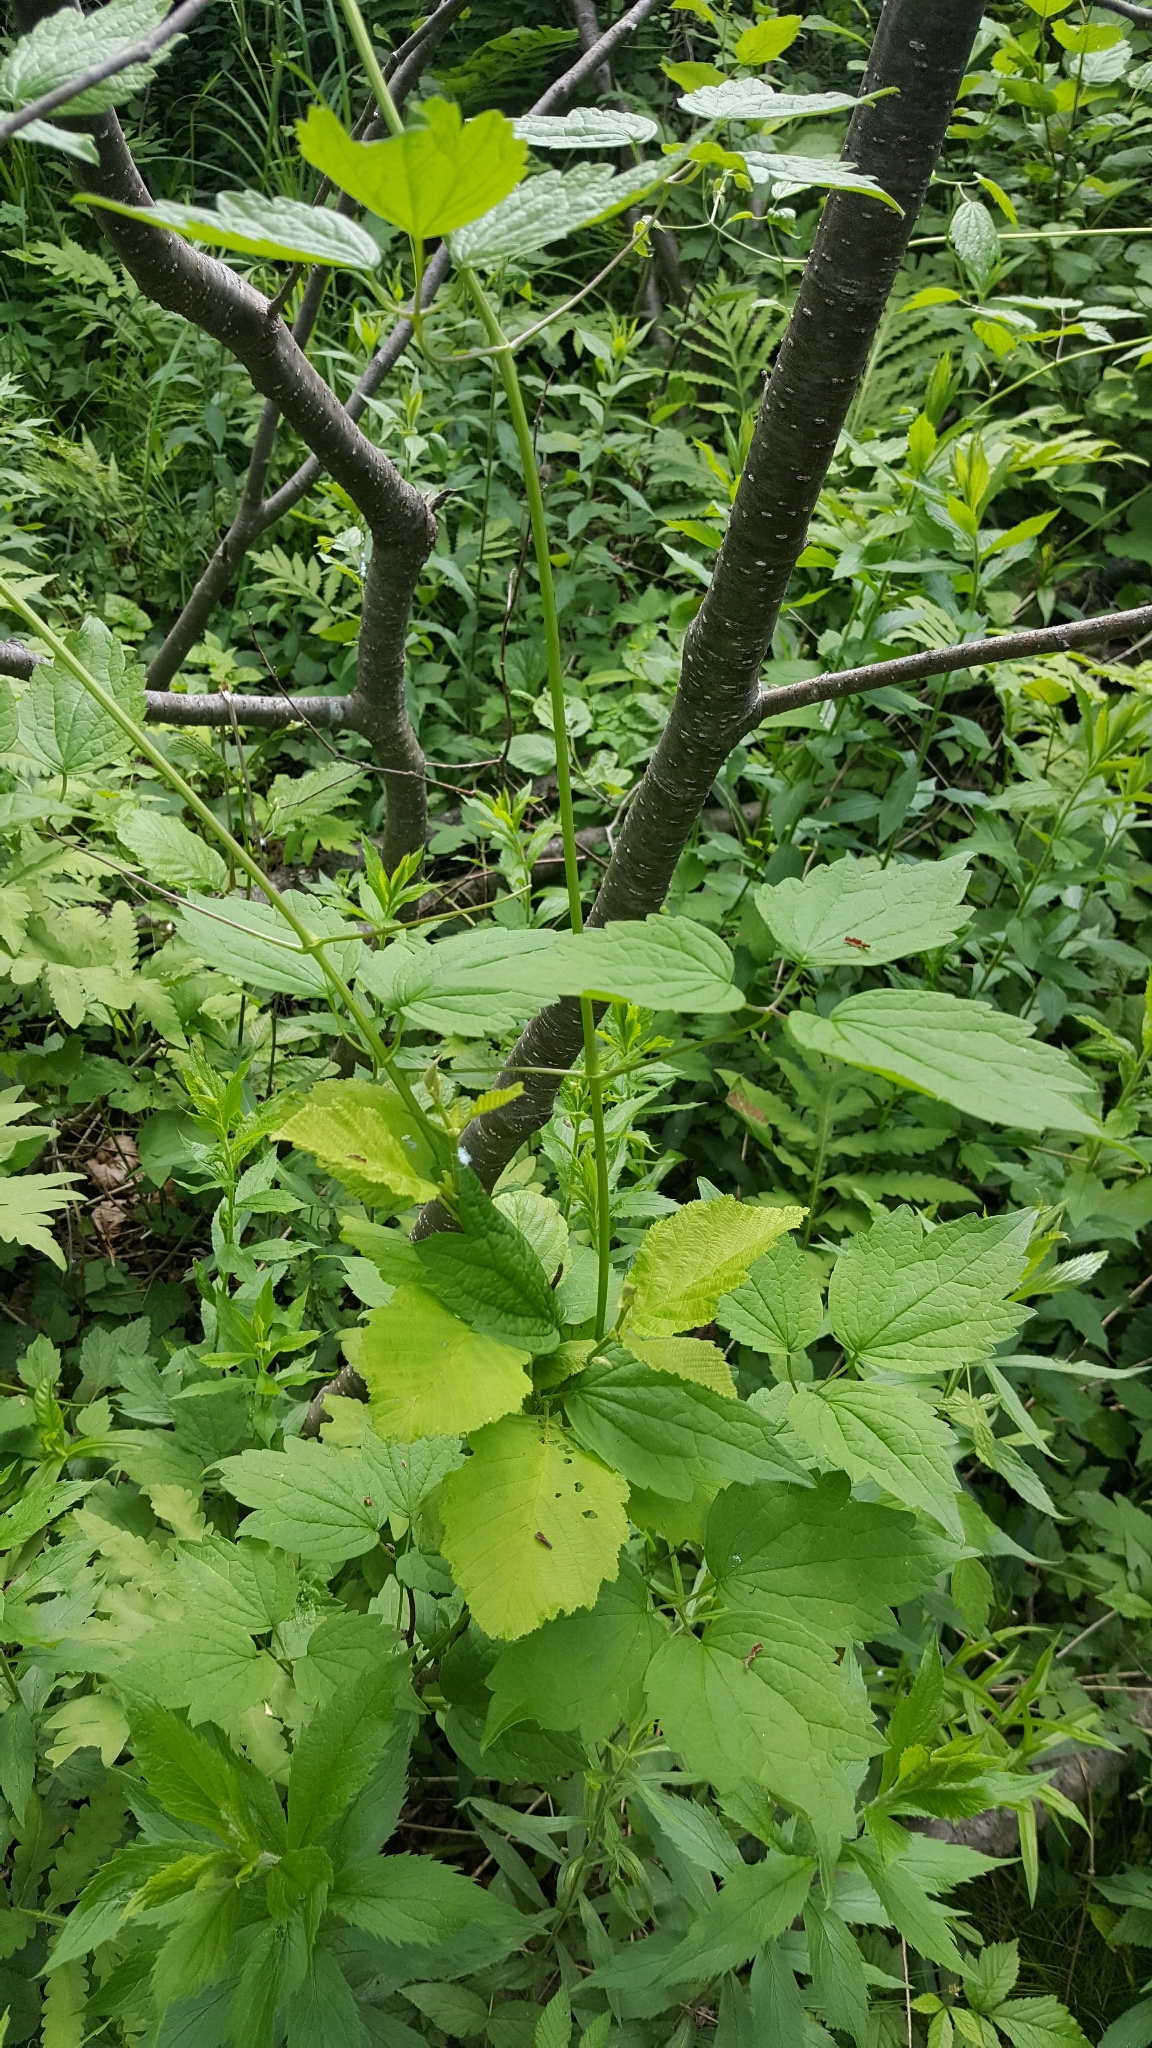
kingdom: Plantae
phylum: Tracheophyta
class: Magnoliopsida
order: Ranunculales
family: Ranunculaceae
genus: Clematis
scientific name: Clematis virginiana
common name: Virgin's-bower
